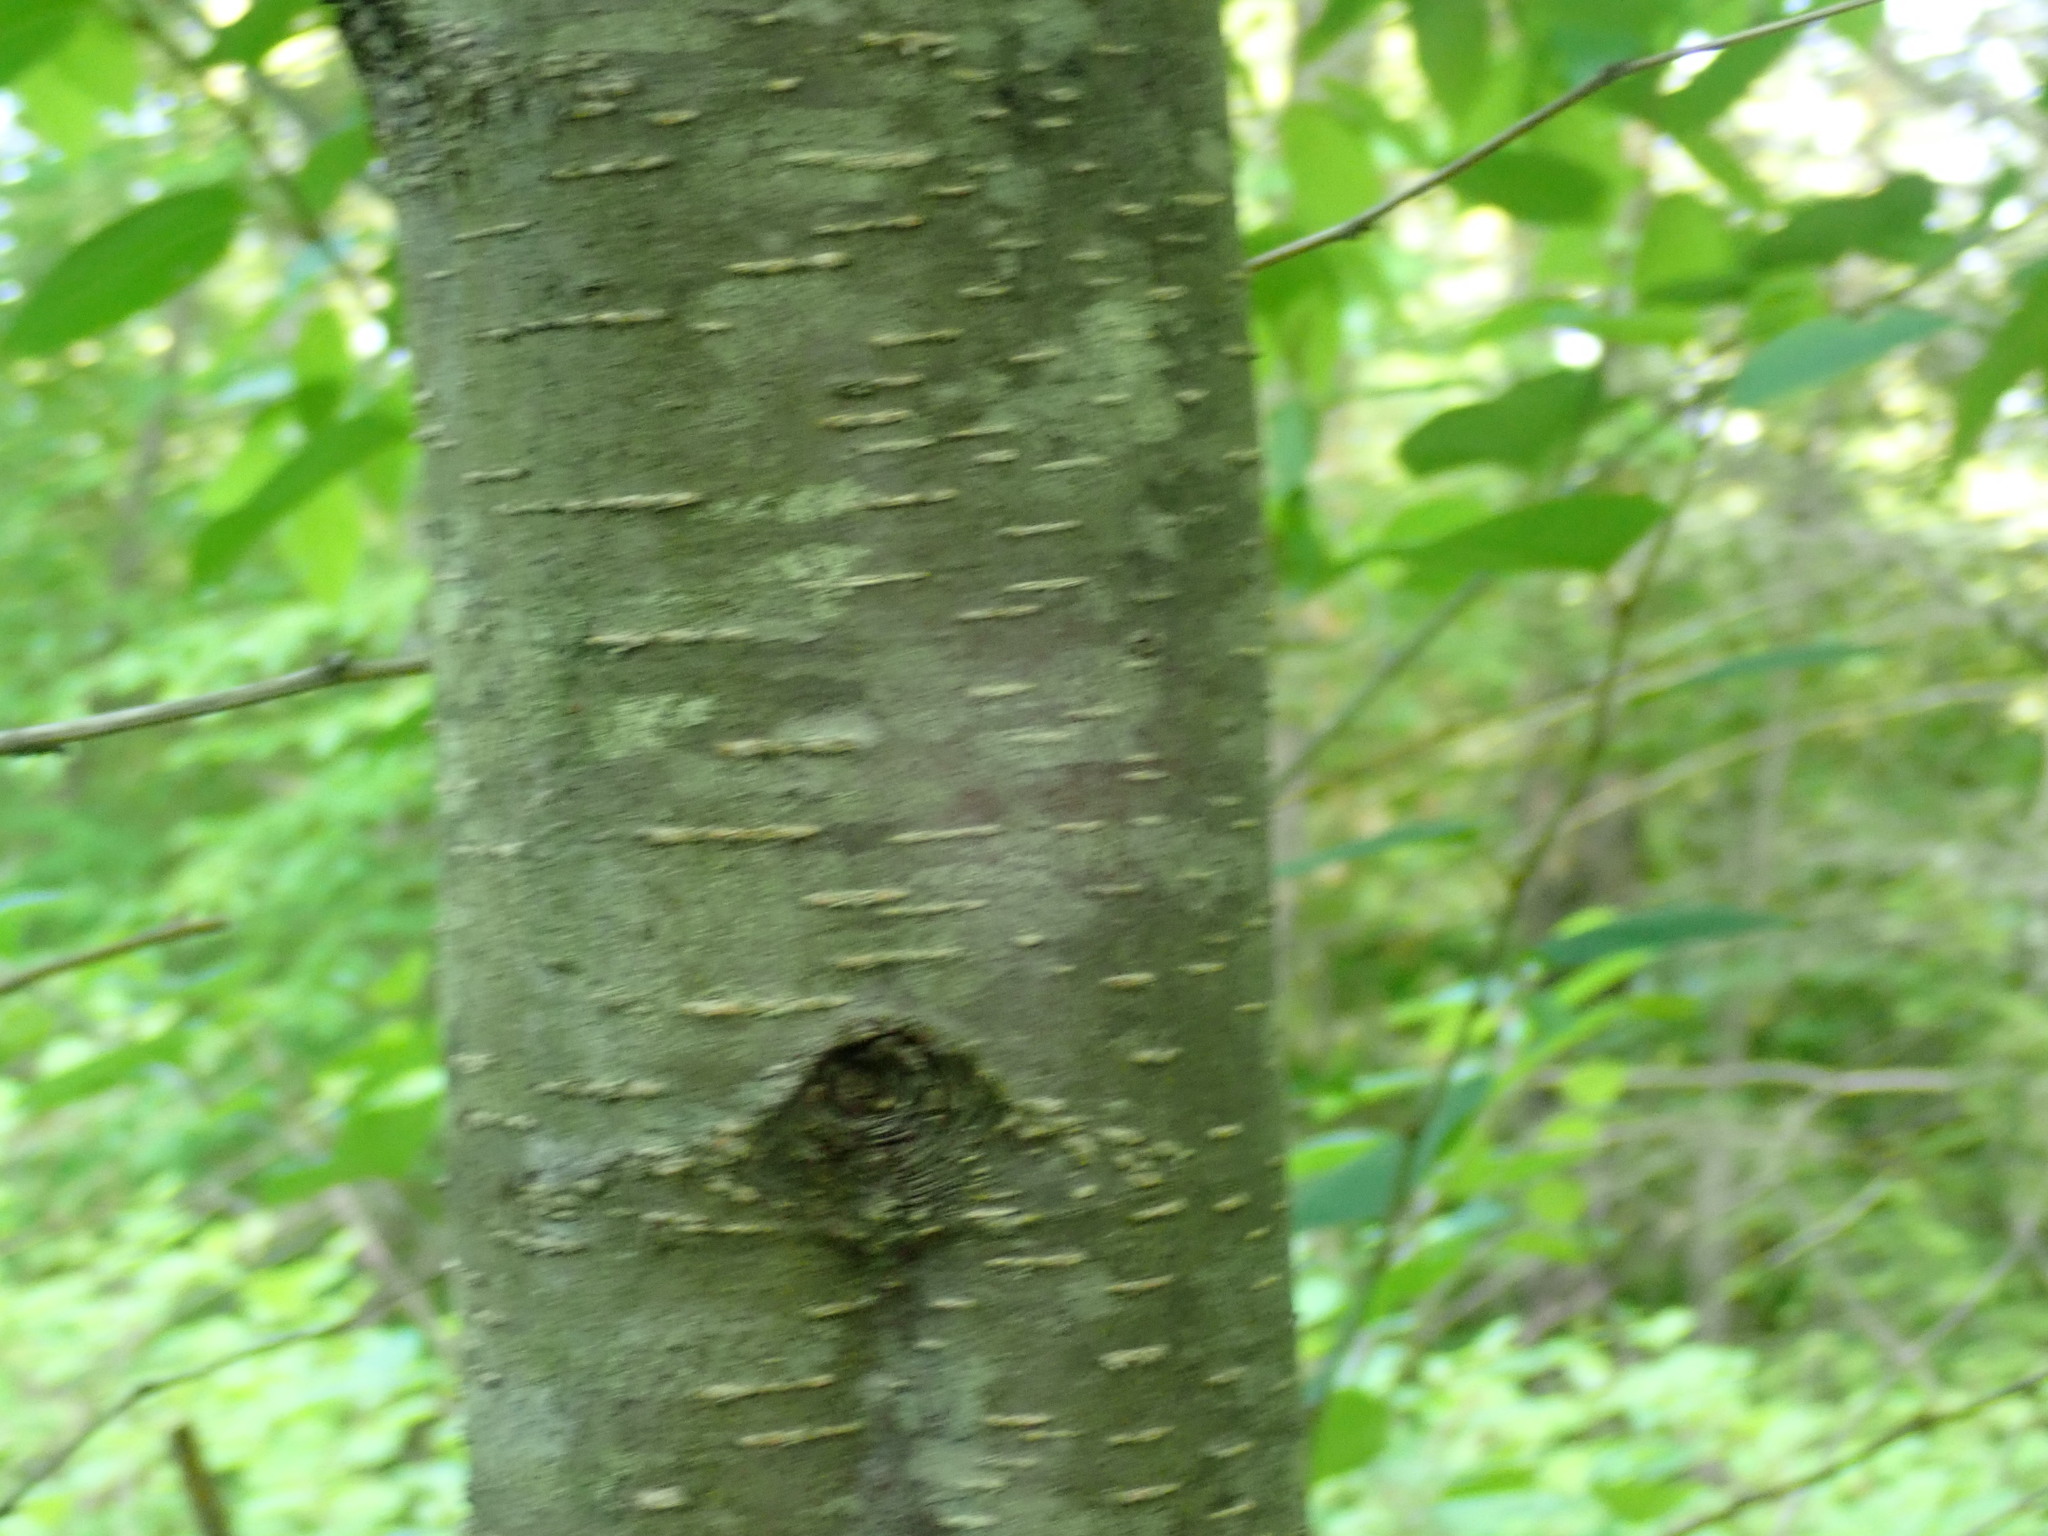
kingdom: Plantae
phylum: Tracheophyta
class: Magnoliopsida
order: Fagales
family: Betulaceae
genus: Betula
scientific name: Betula lenta
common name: Black birch
